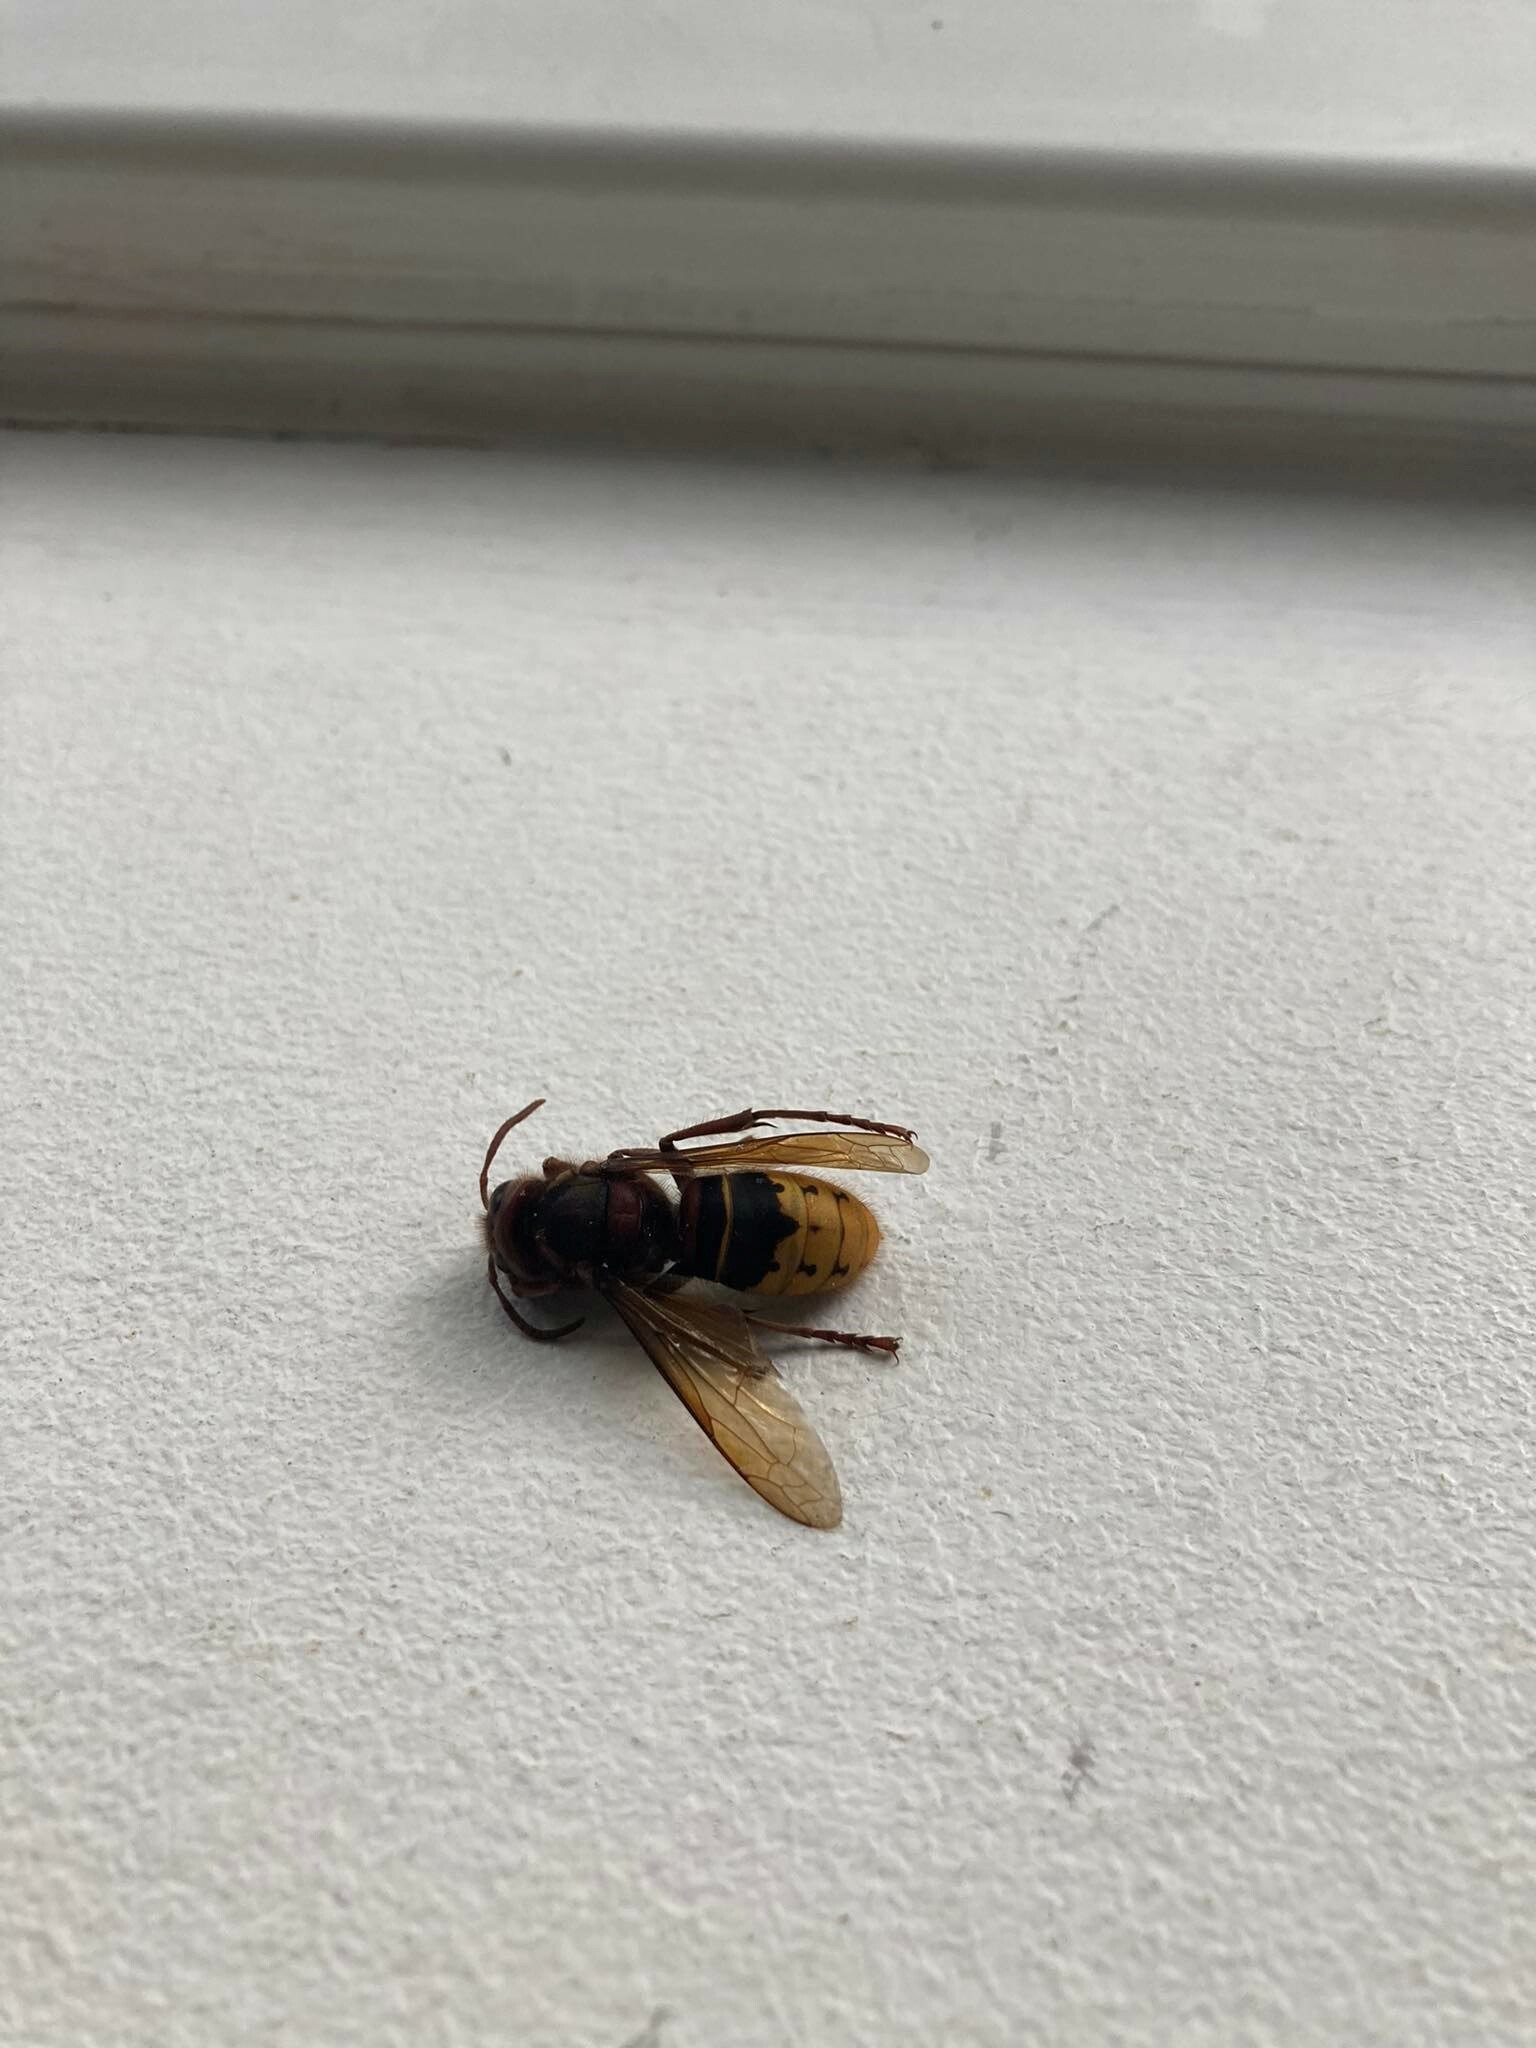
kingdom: Animalia
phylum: Arthropoda
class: Insecta
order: Hymenoptera
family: Vespidae
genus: Vespa
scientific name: Vespa crabro
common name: Hornet
